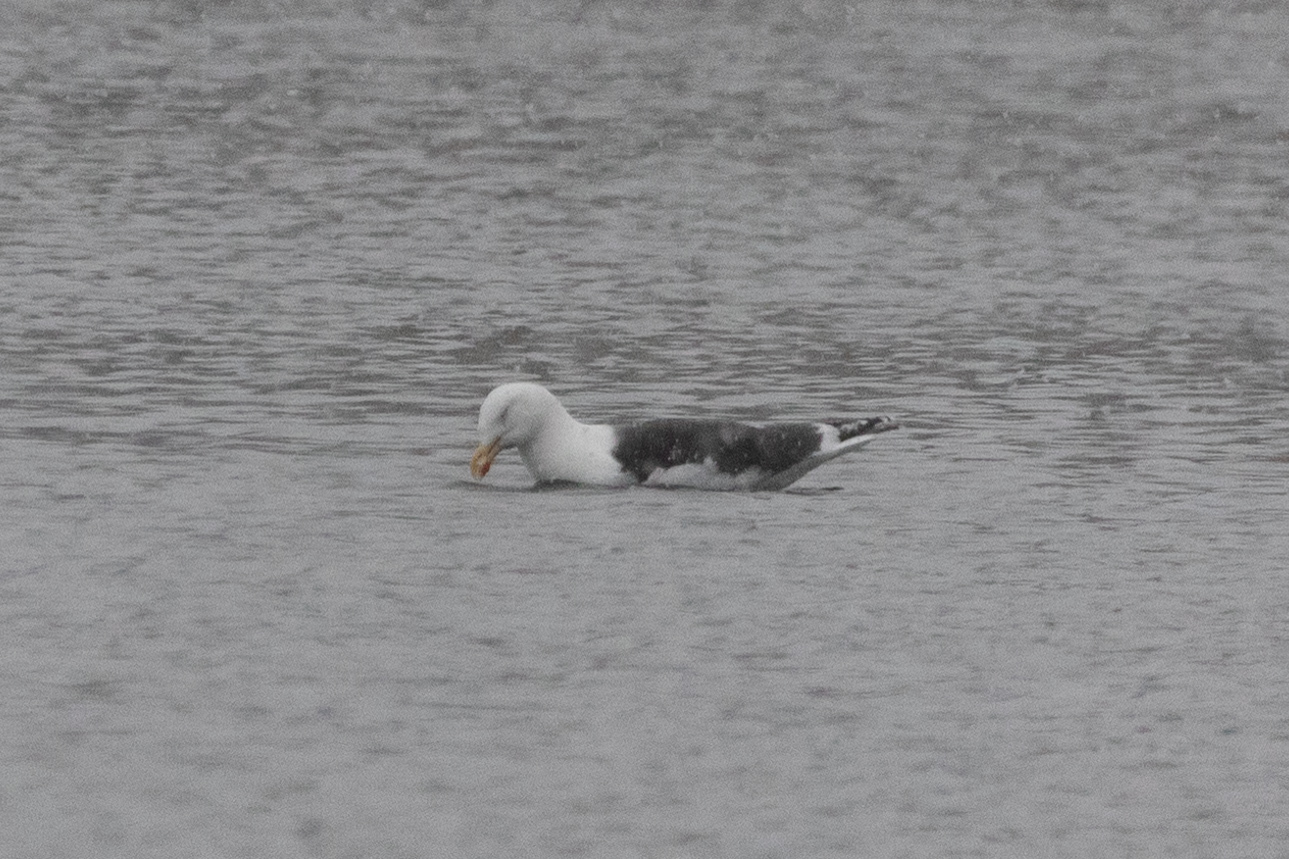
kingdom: Animalia
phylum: Chordata
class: Aves
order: Charadriiformes
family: Laridae
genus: Larus
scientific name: Larus marinus
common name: Great black-backed gull
